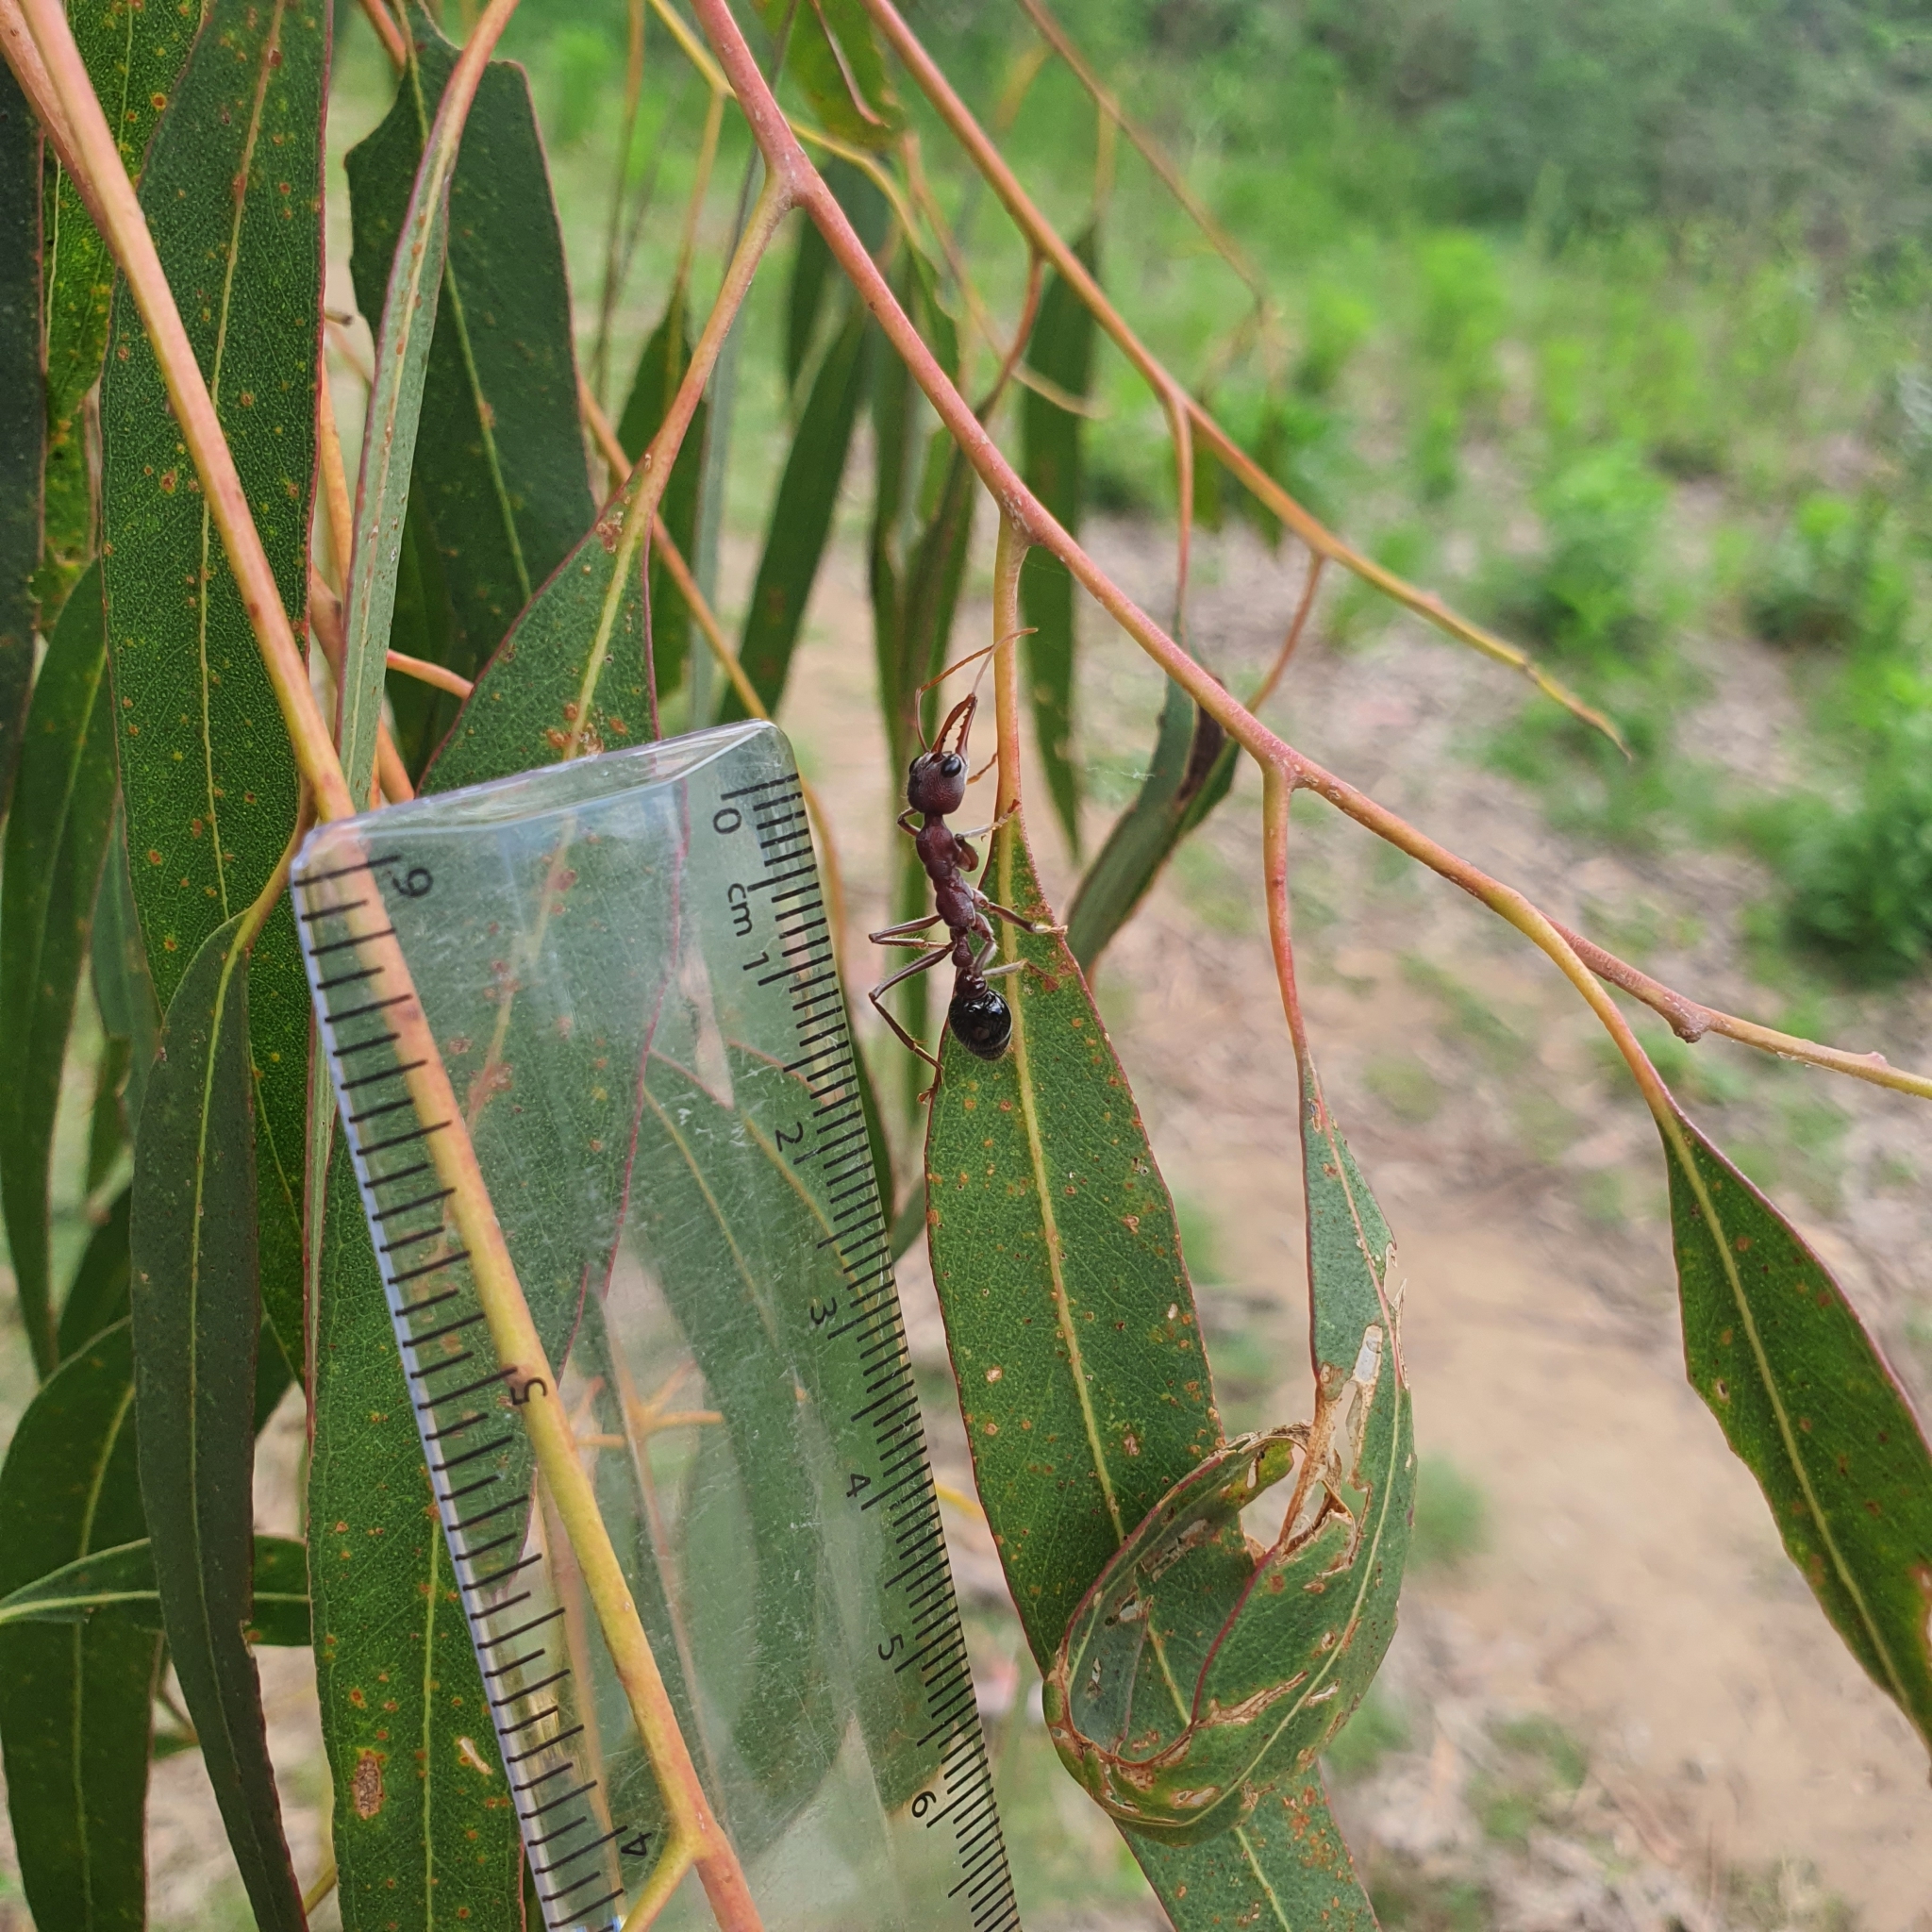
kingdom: Animalia
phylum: Arthropoda
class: Insecta
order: Hymenoptera
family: Formicidae
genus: Myrmecia
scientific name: Myrmecia simillima
